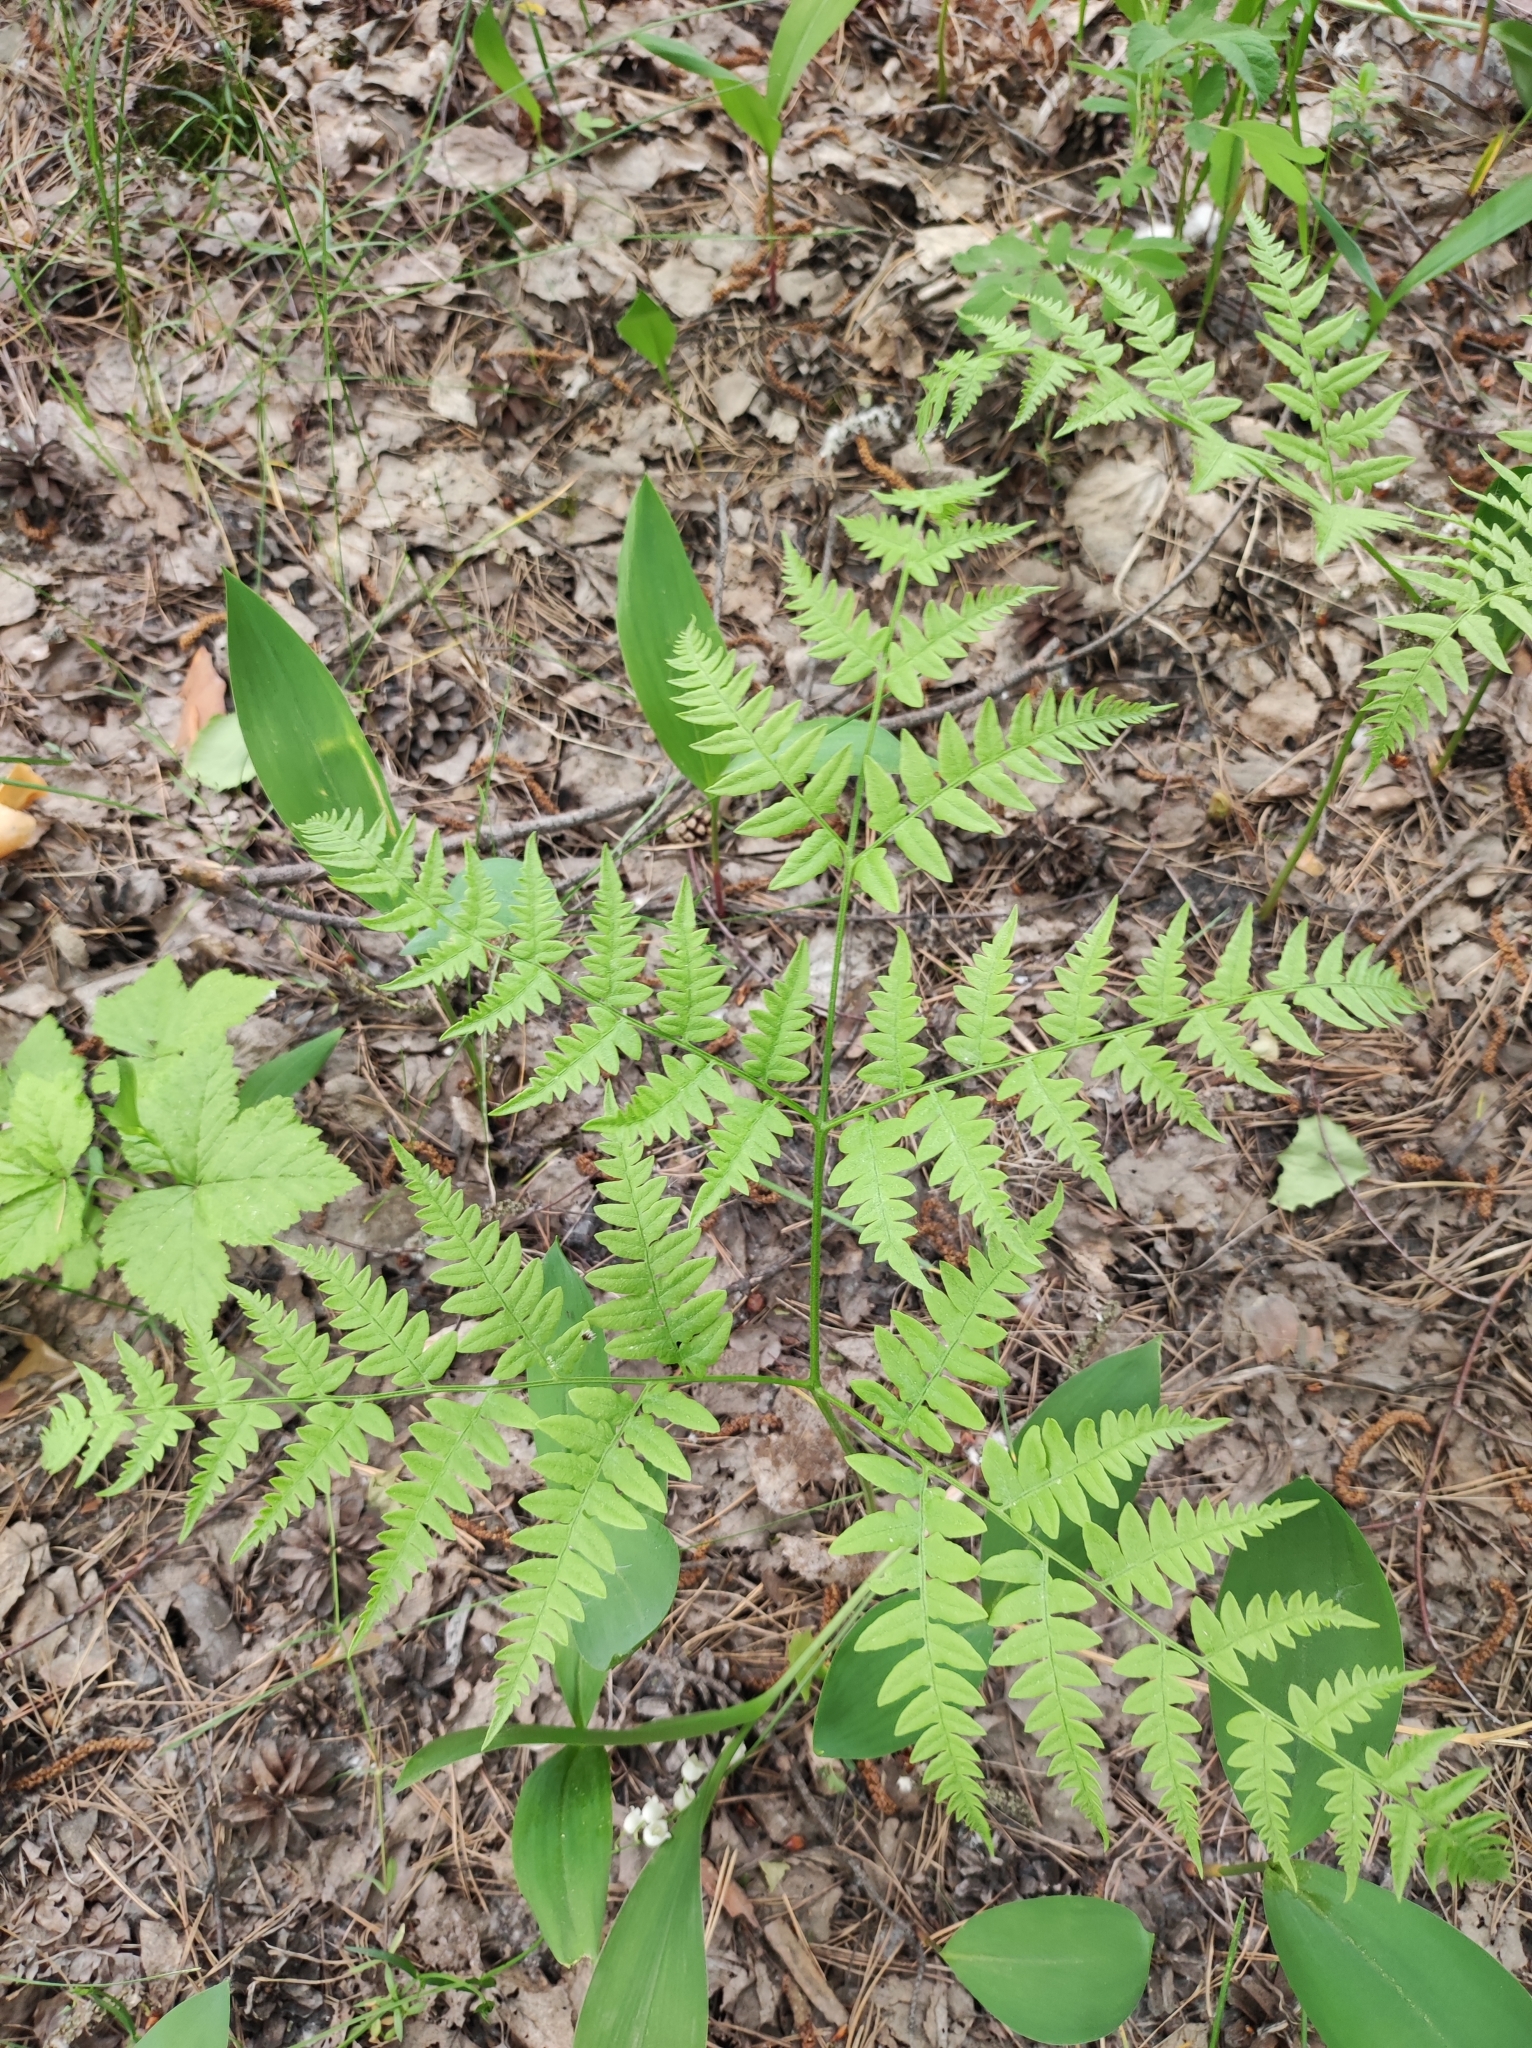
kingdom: Plantae
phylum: Tracheophyta
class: Polypodiopsida
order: Polypodiales
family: Dennstaedtiaceae
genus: Pteridium
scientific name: Pteridium aquilinum
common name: Bracken
